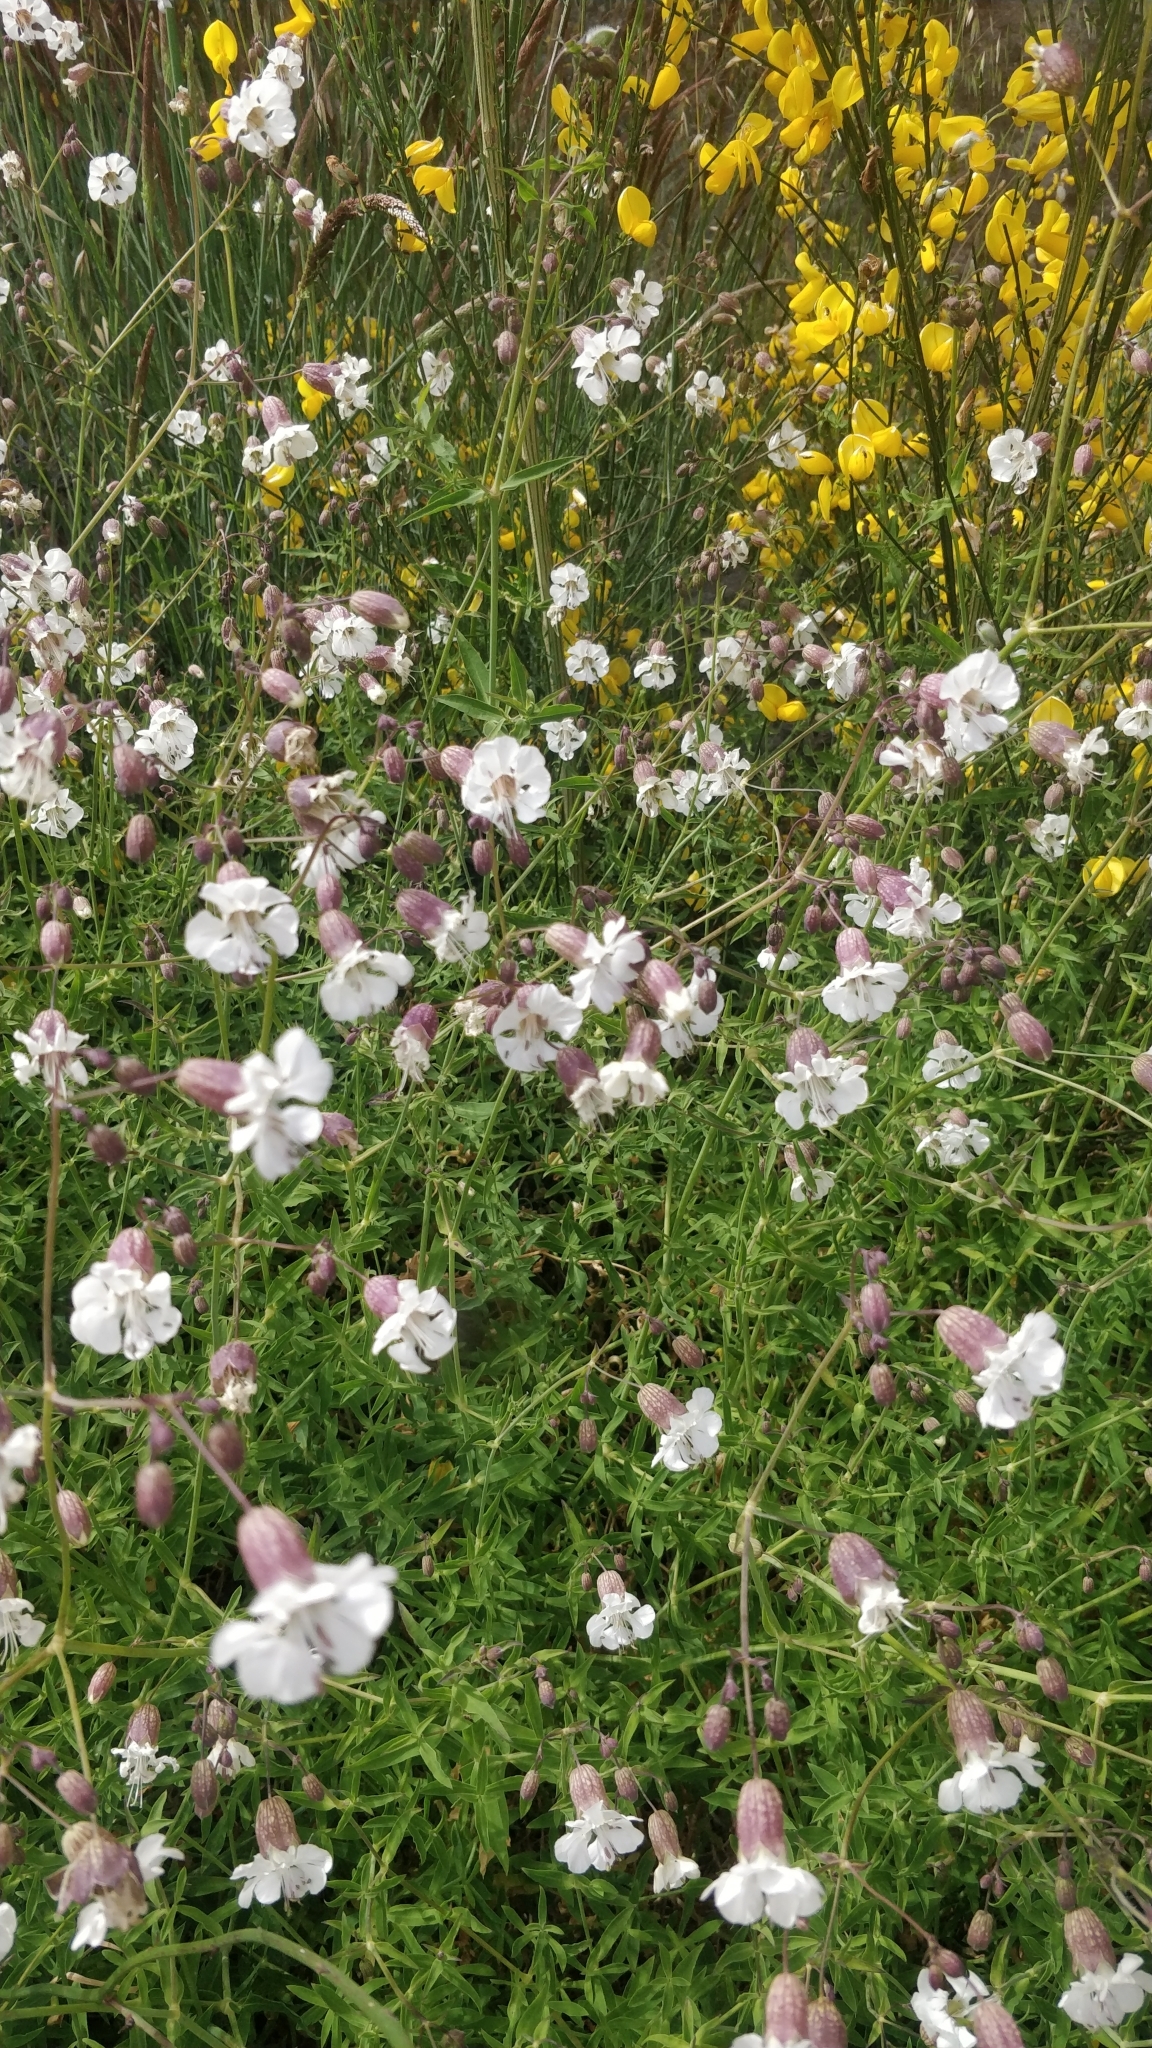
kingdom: Plantae
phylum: Tracheophyta
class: Magnoliopsida
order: Caryophyllales
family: Caryophyllaceae
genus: Silene
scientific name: Silene uniflora
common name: Sea campion
